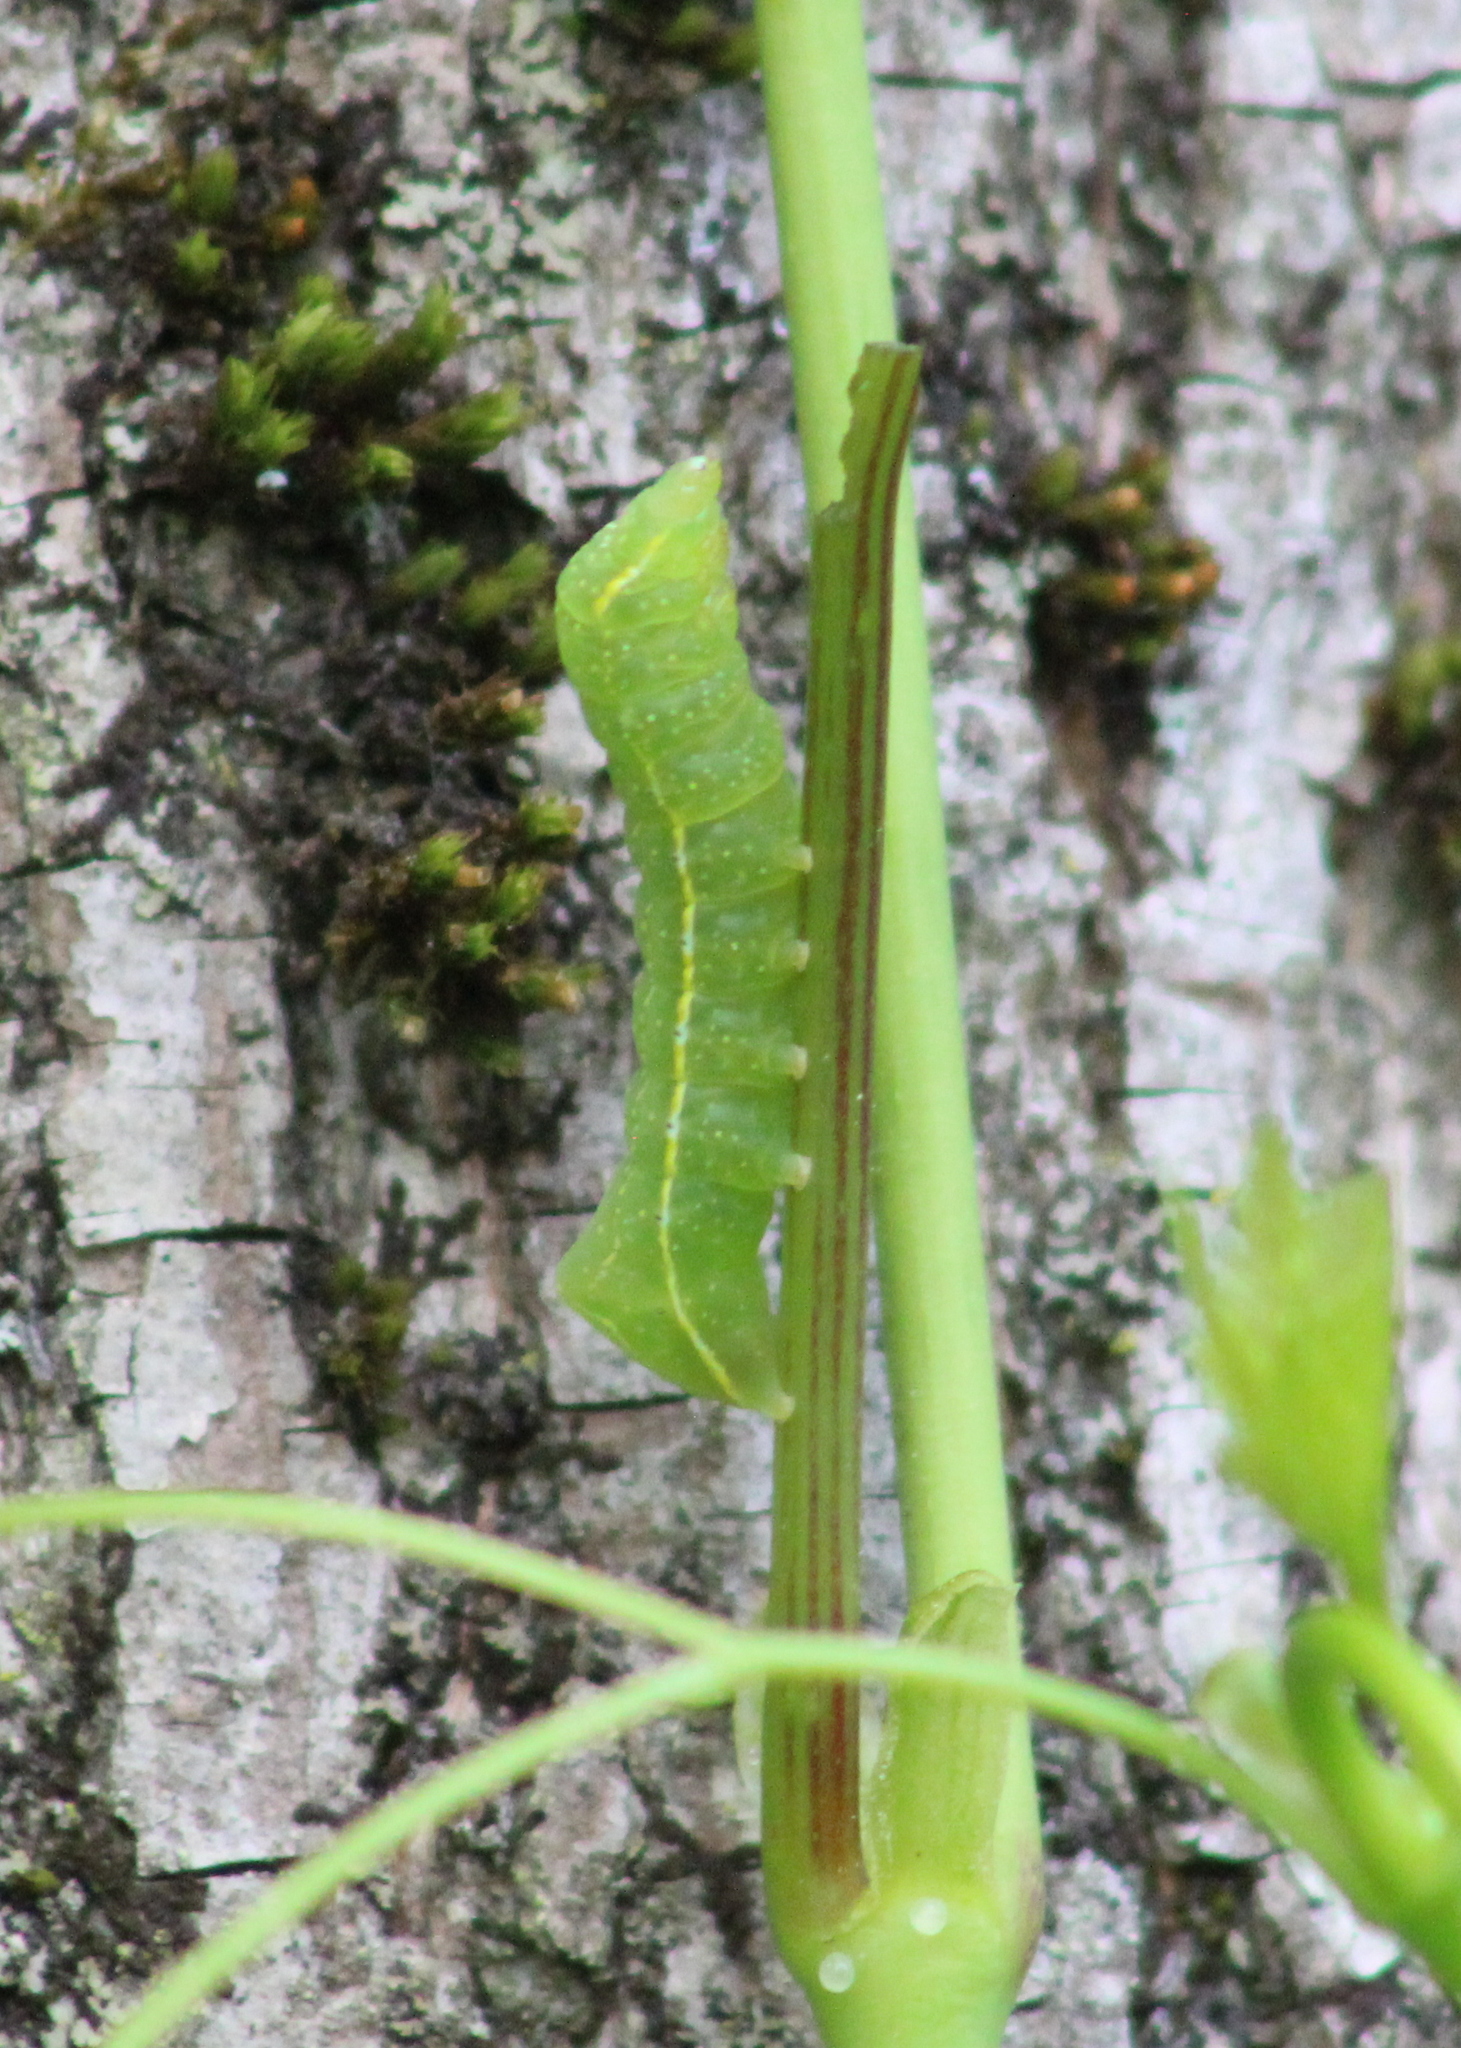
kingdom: Animalia
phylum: Arthropoda
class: Insecta
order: Lepidoptera
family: Noctuidae
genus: Amphipyra
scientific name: Amphipyra pyramidoides
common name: American copper underwing
